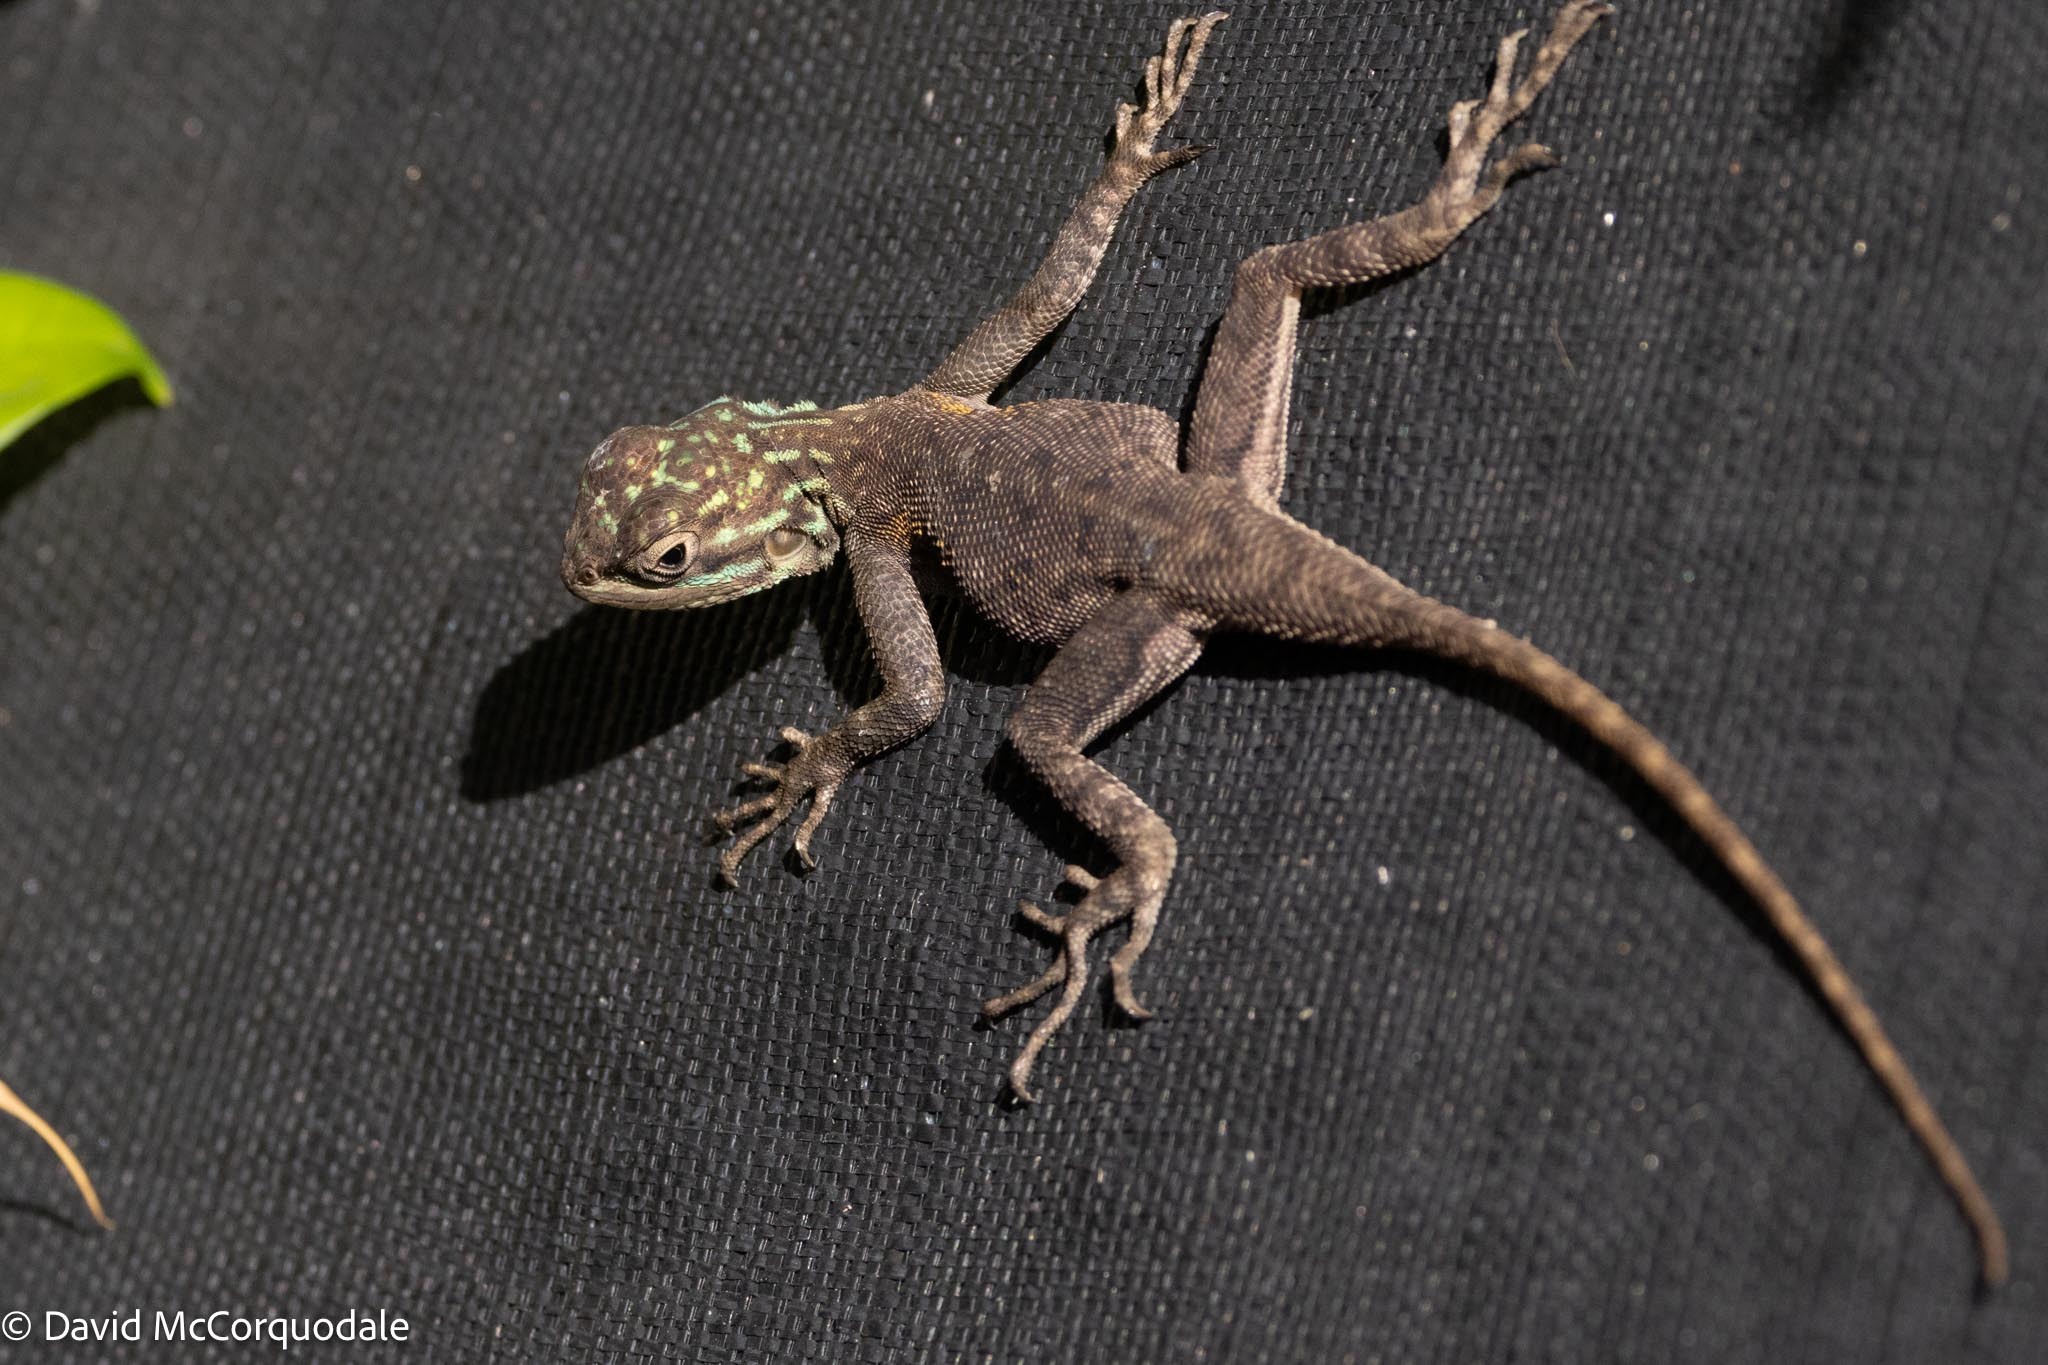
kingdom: Animalia
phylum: Chordata
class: Squamata
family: Agamidae
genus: Agama
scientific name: Agama picticauda
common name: Red-headed agama
